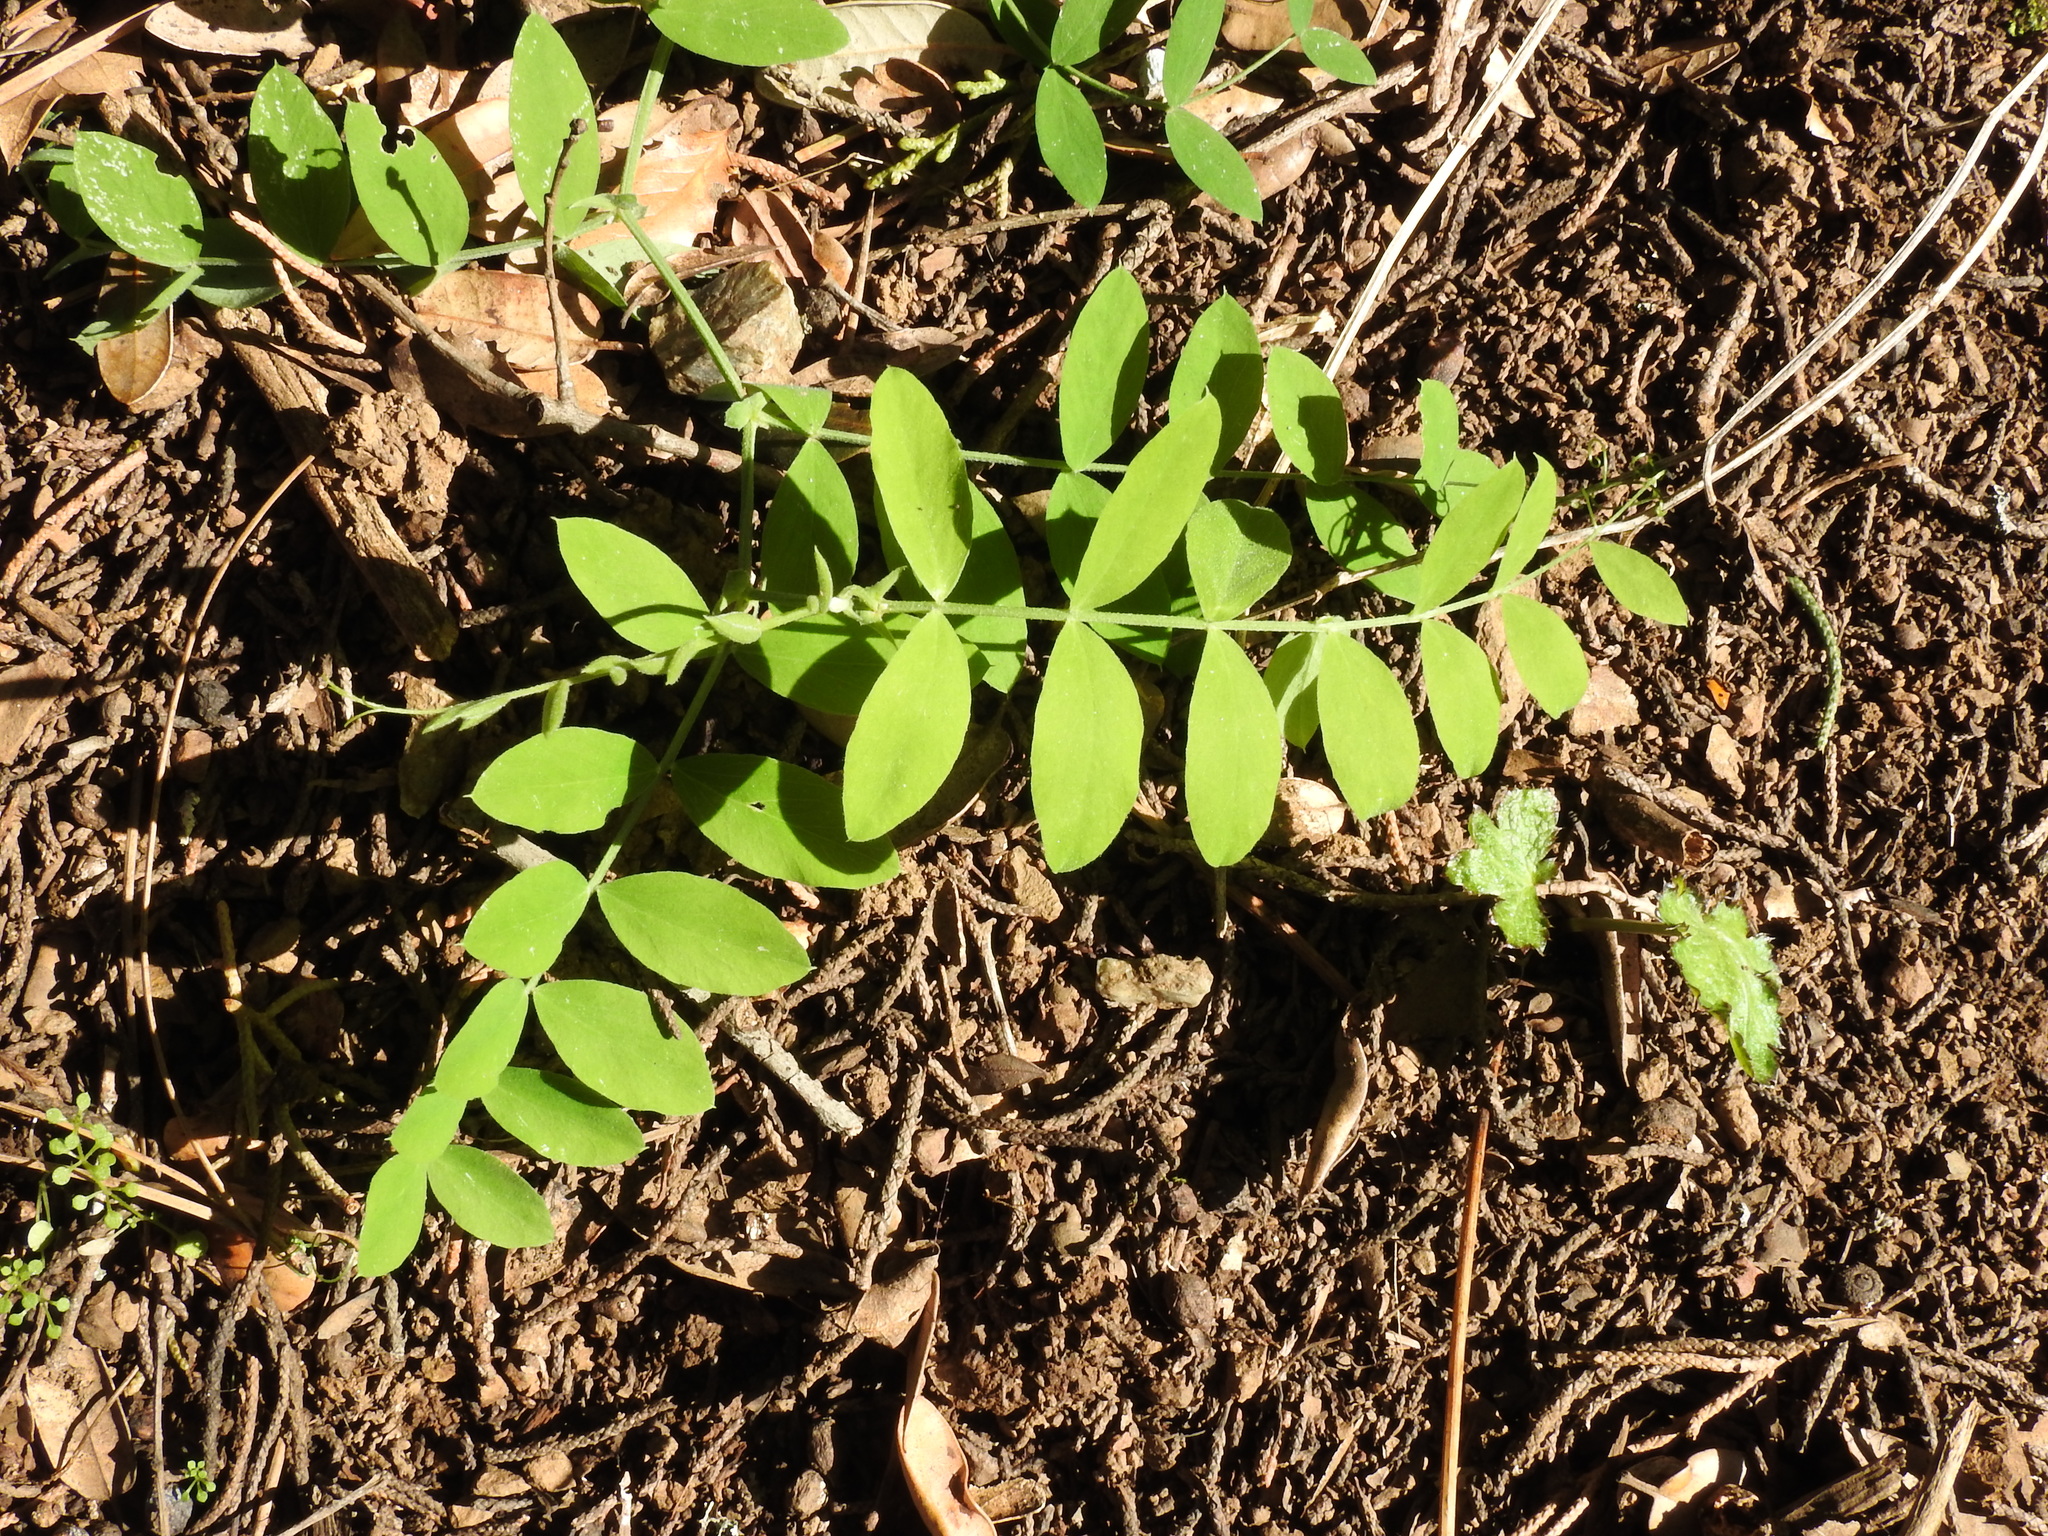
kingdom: Plantae
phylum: Tracheophyta
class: Magnoliopsida
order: Fabales
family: Fabaceae
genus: Lathyrus
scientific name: Lathyrus vestitus
